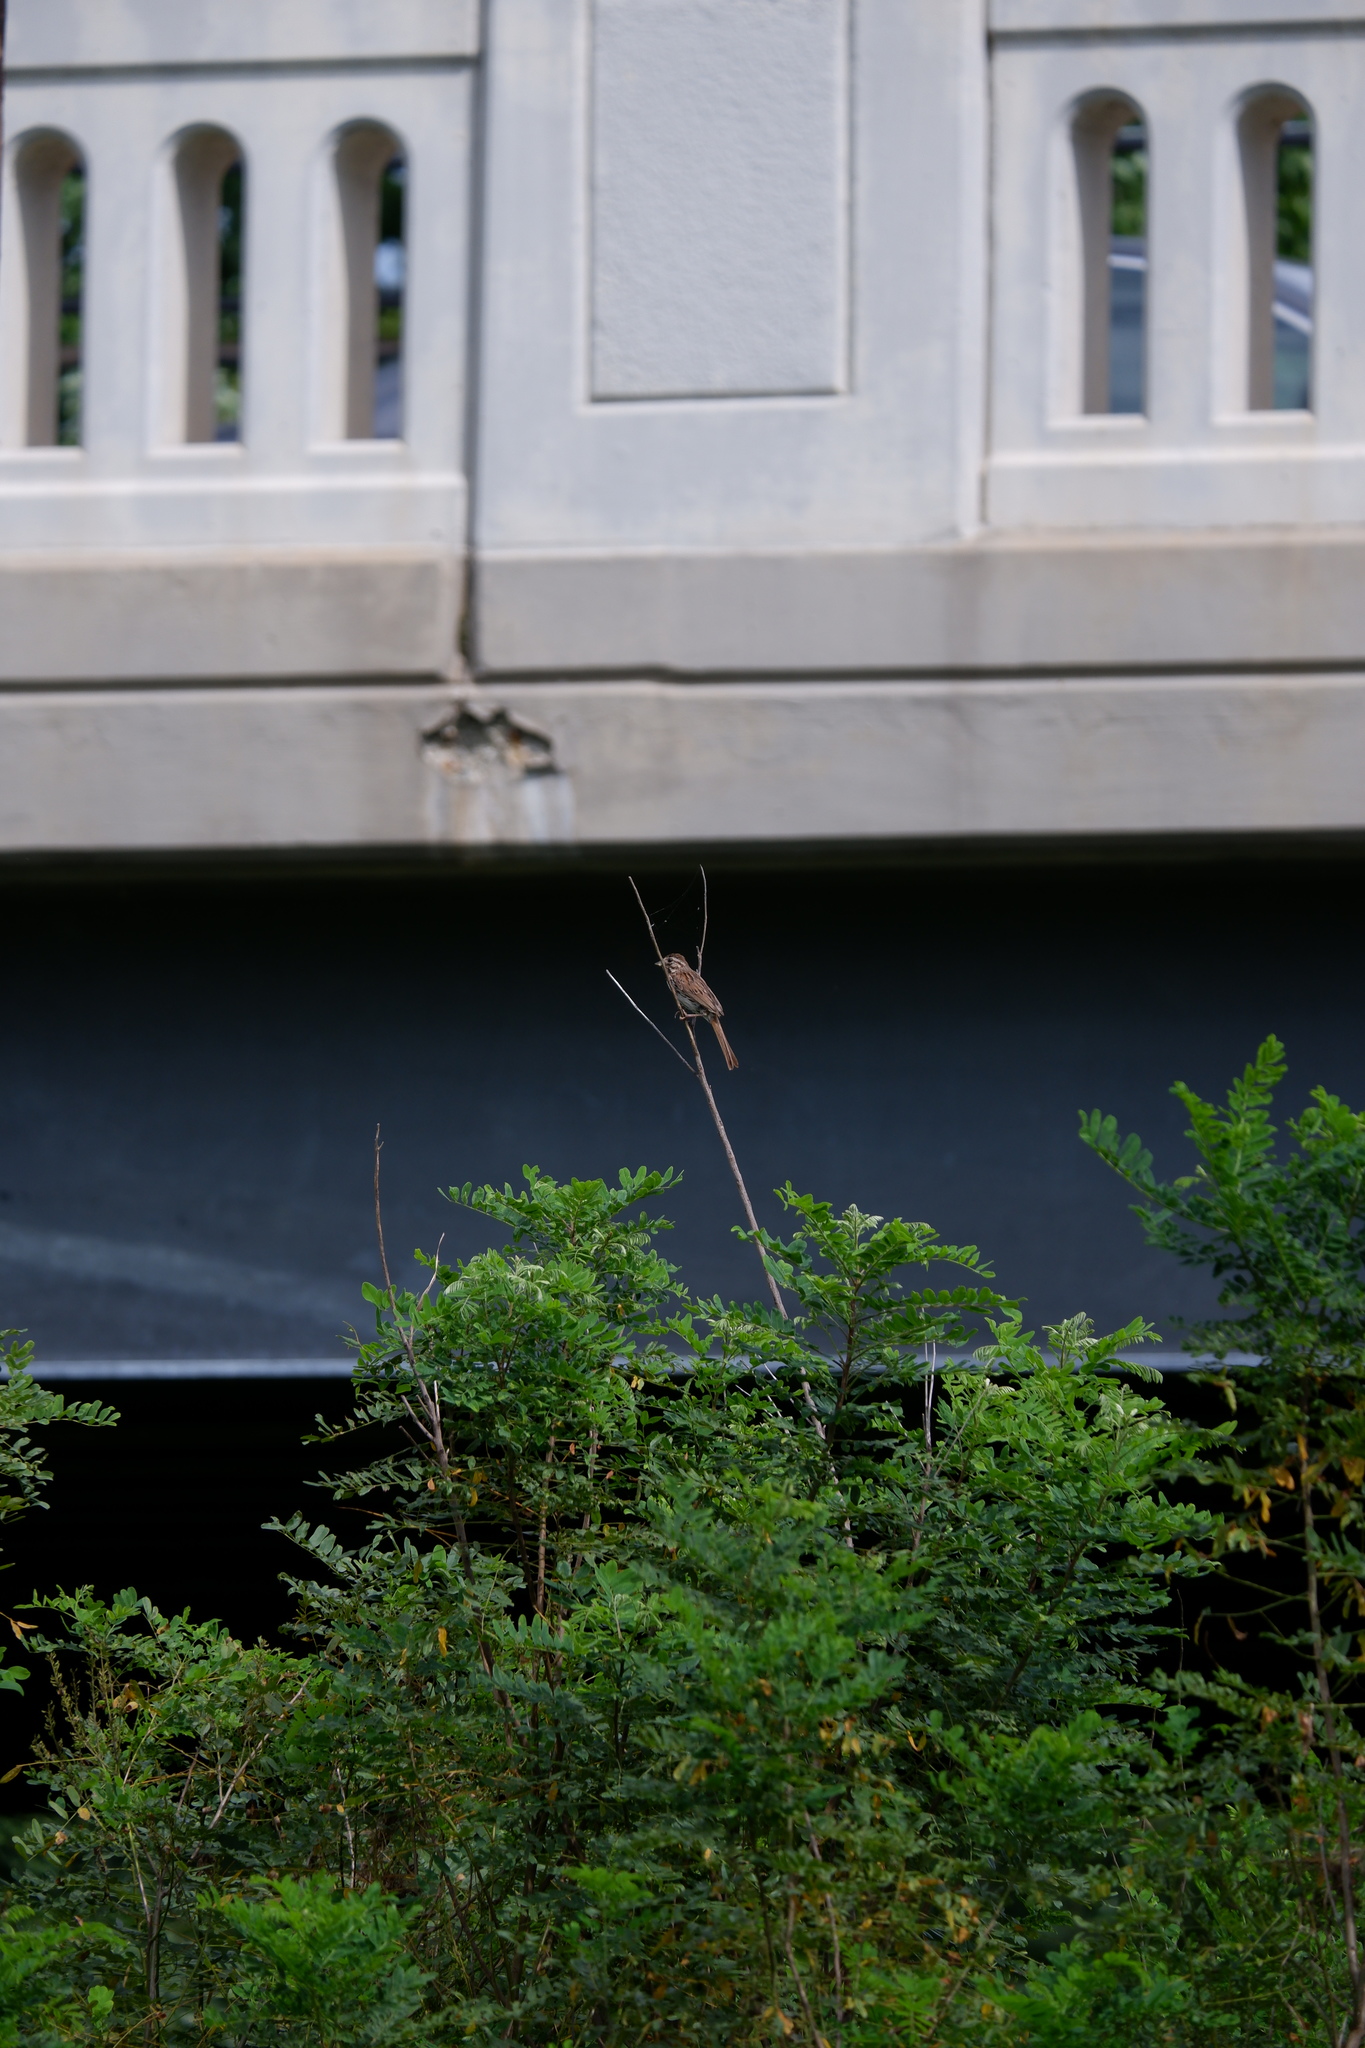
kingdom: Animalia
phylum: Chordata
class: Aves
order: Passeriformes
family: Passerellidae
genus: Melospiza
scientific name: Melospiza melodia
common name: Song sparrow
